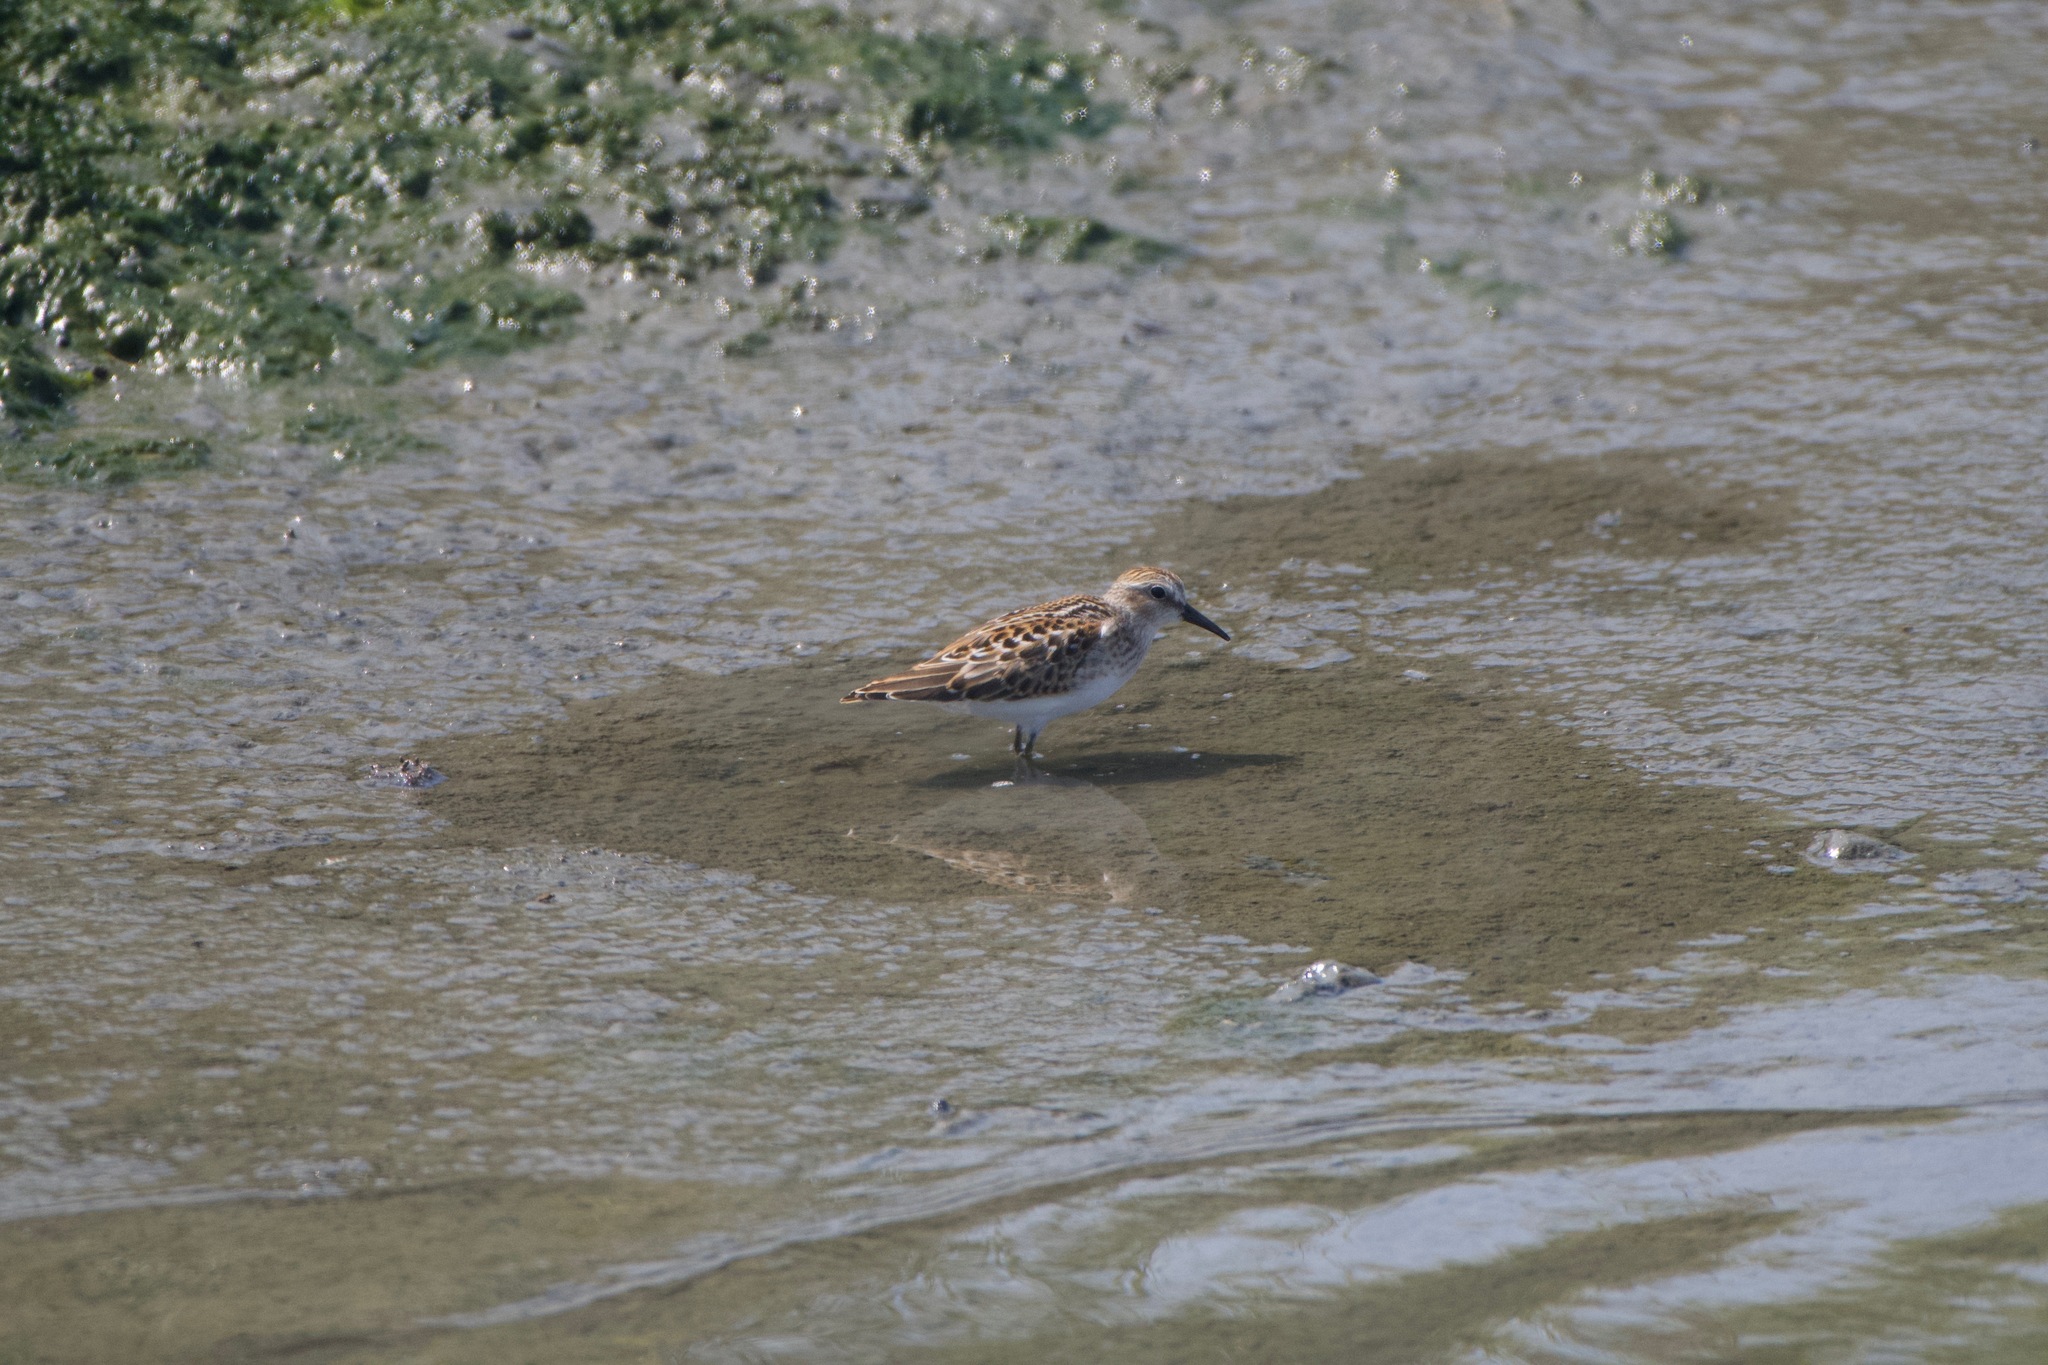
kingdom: Animalia
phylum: Chordata
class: Aves
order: Charadriiformes
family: Scolopacidae
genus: Calidris
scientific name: Calidris minutilla
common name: Least sandpiper
